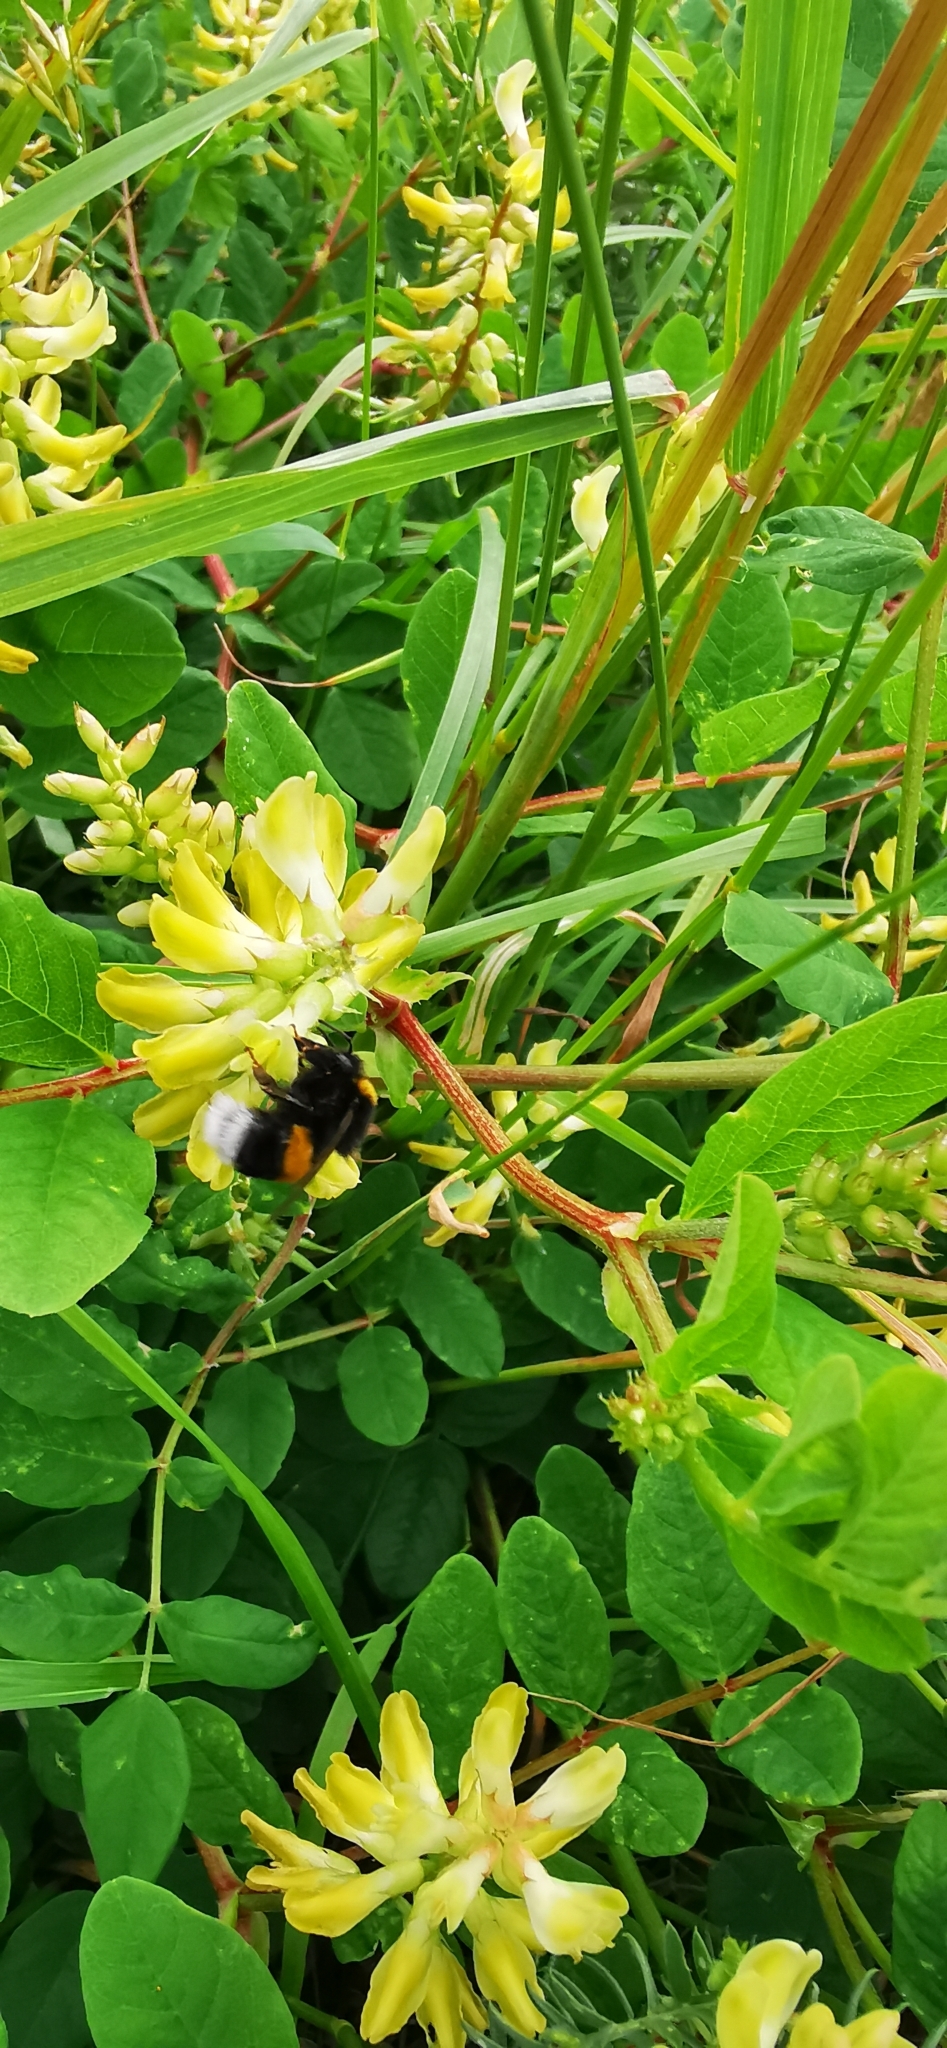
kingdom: Plantae
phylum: Tracheophyta
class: Magnoliopsida
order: Fabales
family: Fabaceae
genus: Astragalus
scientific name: Astragalus glycyphyllos
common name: Wild liquorice
